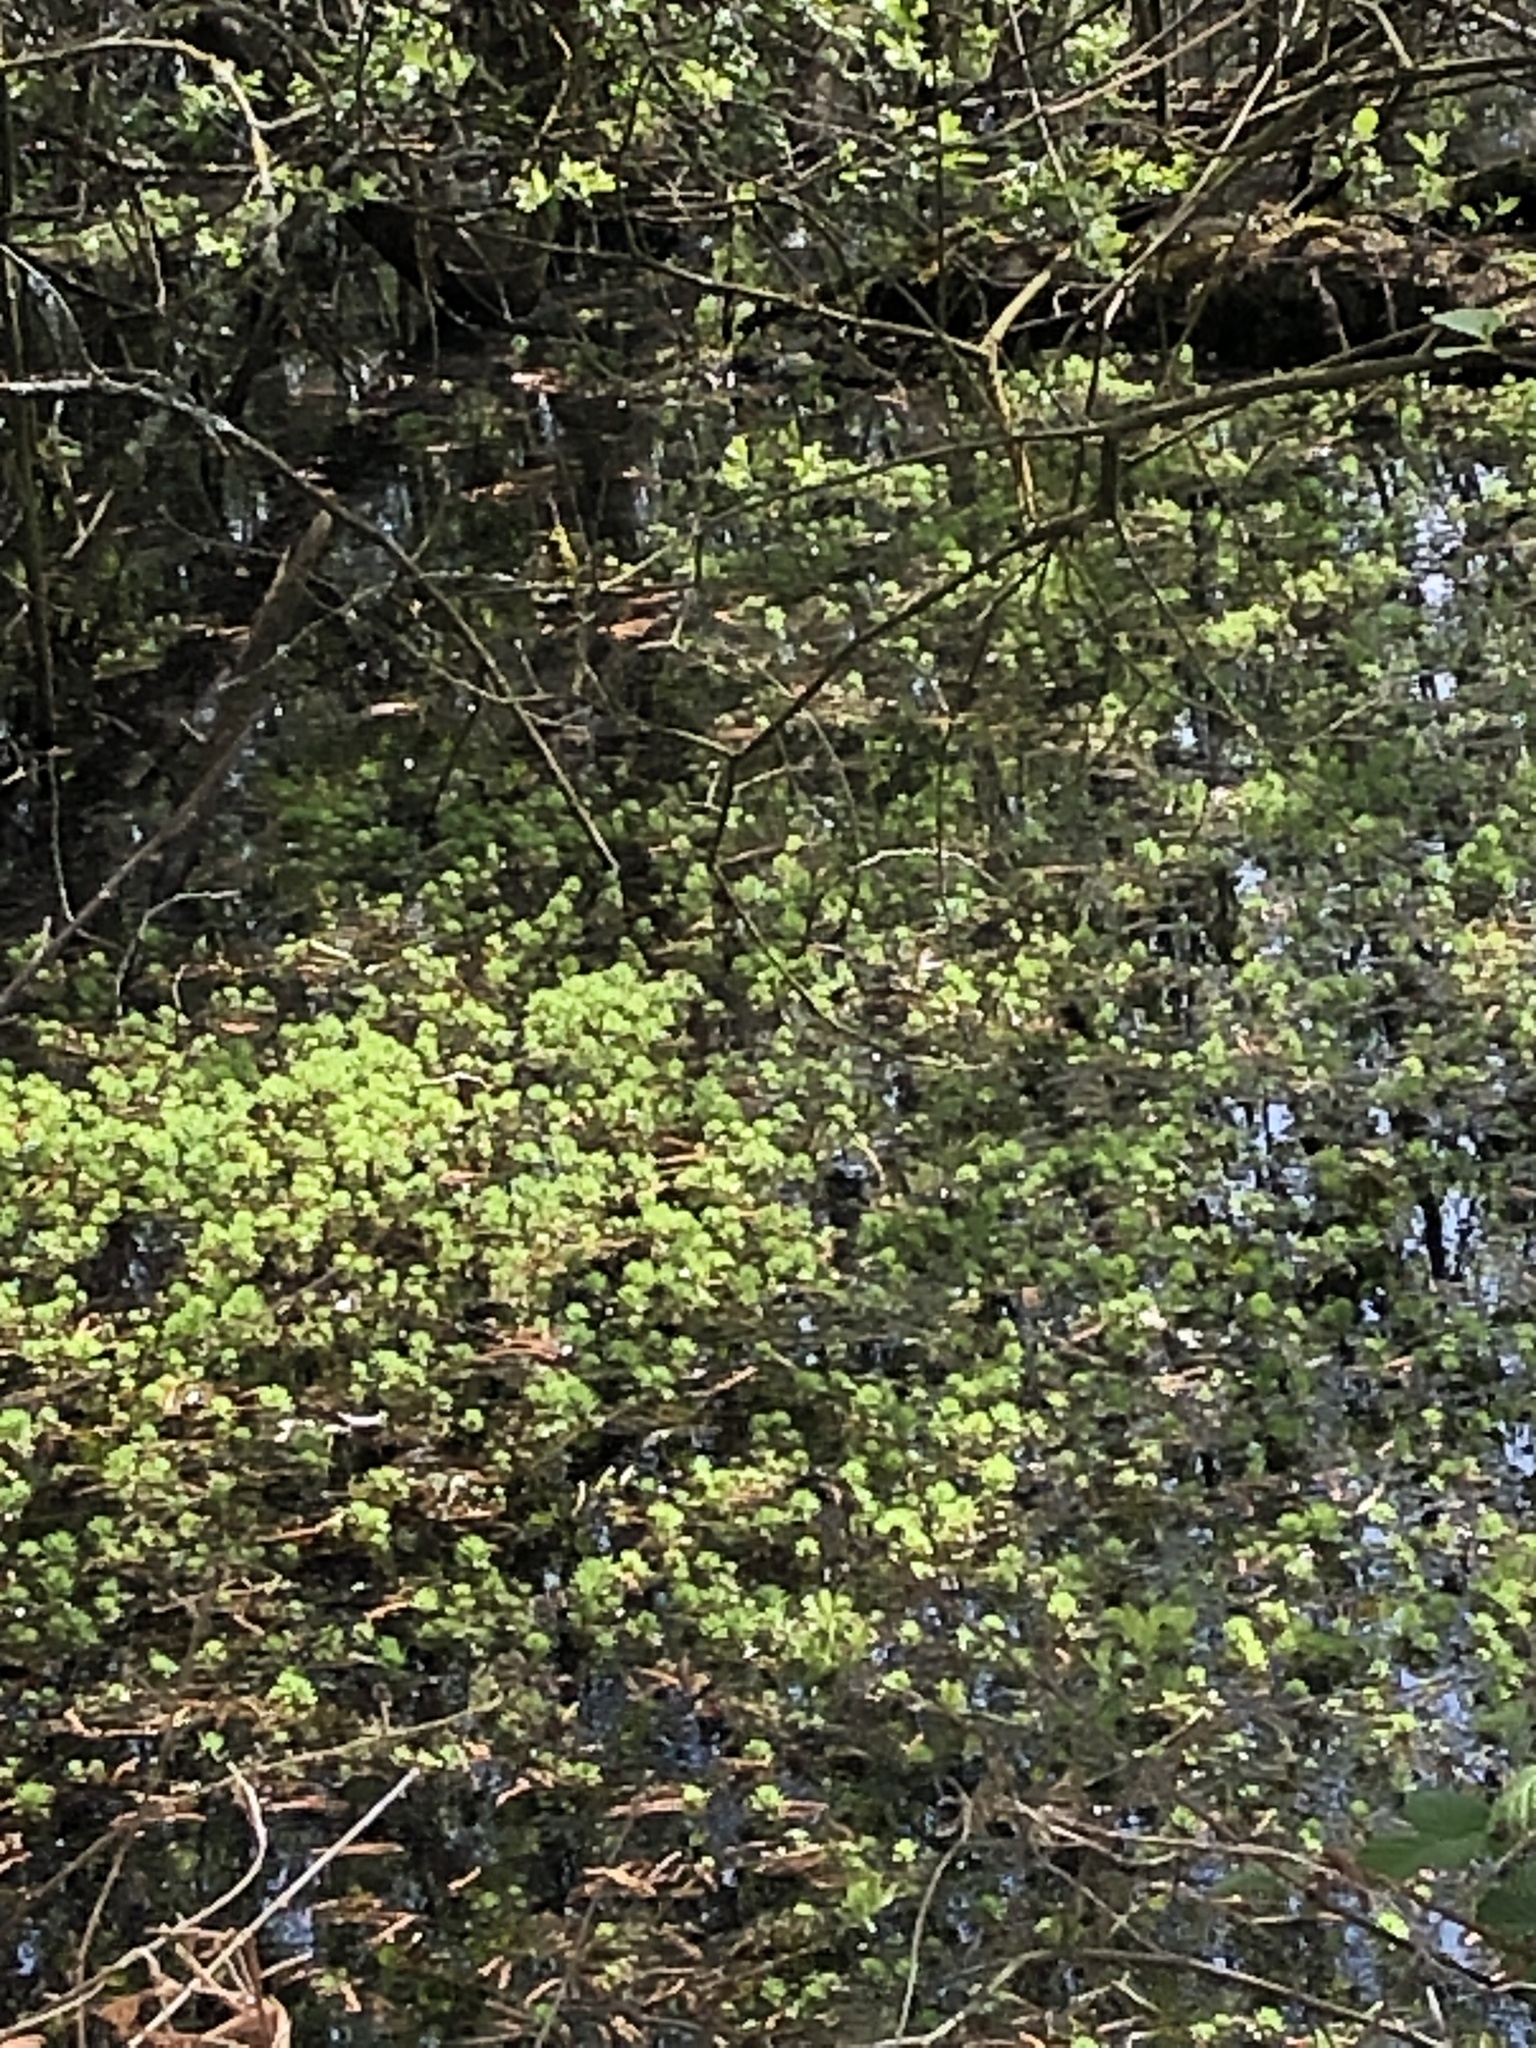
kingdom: Plantae
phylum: Tracheophyta
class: Magnoliopsida
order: Saxifragales
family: Haloragaceae
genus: Myriophyllum
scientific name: Myriophyllum aquaticum
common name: Parrot's feather
